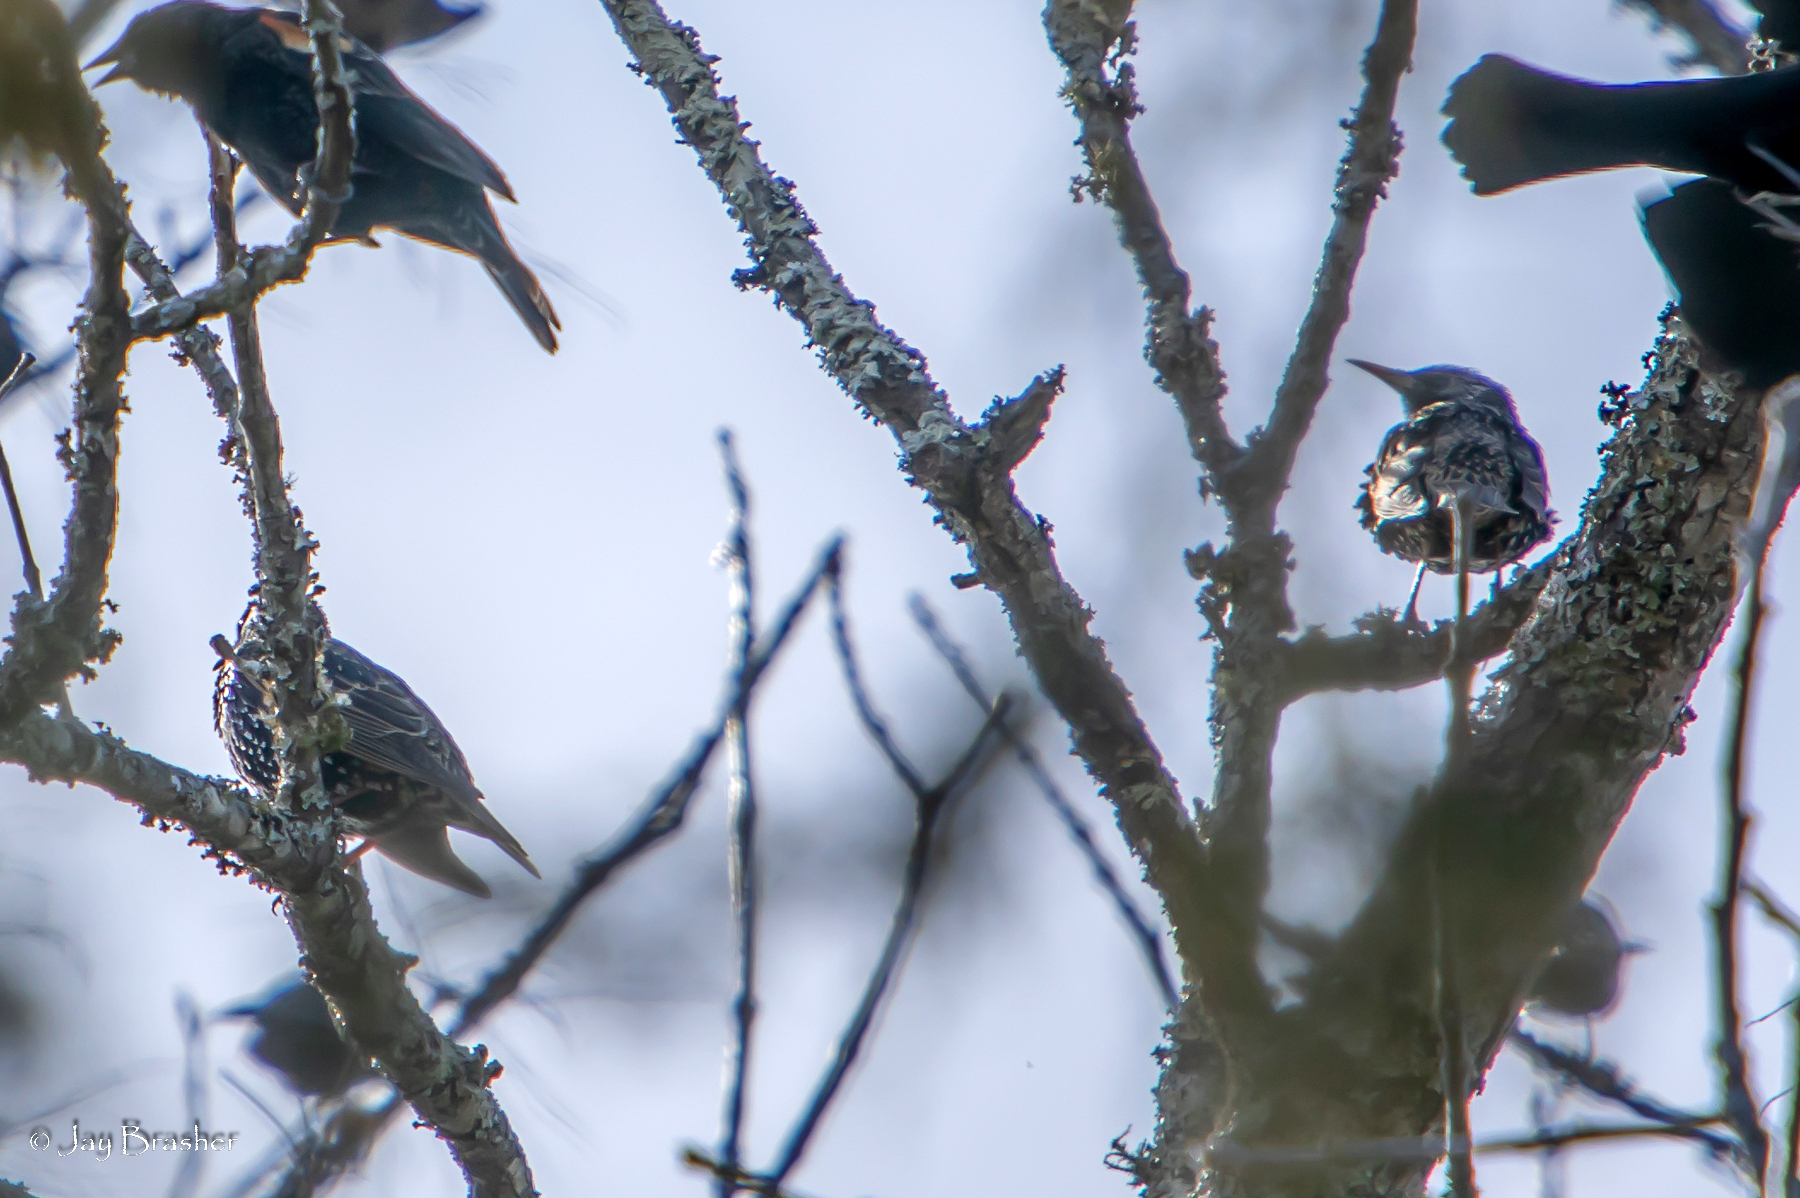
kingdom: Animalia
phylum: Chordata
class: Aves
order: Passeriformes
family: Sturnidae
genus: Sturnus
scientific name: Sturnus vulgaris
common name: Common starling
